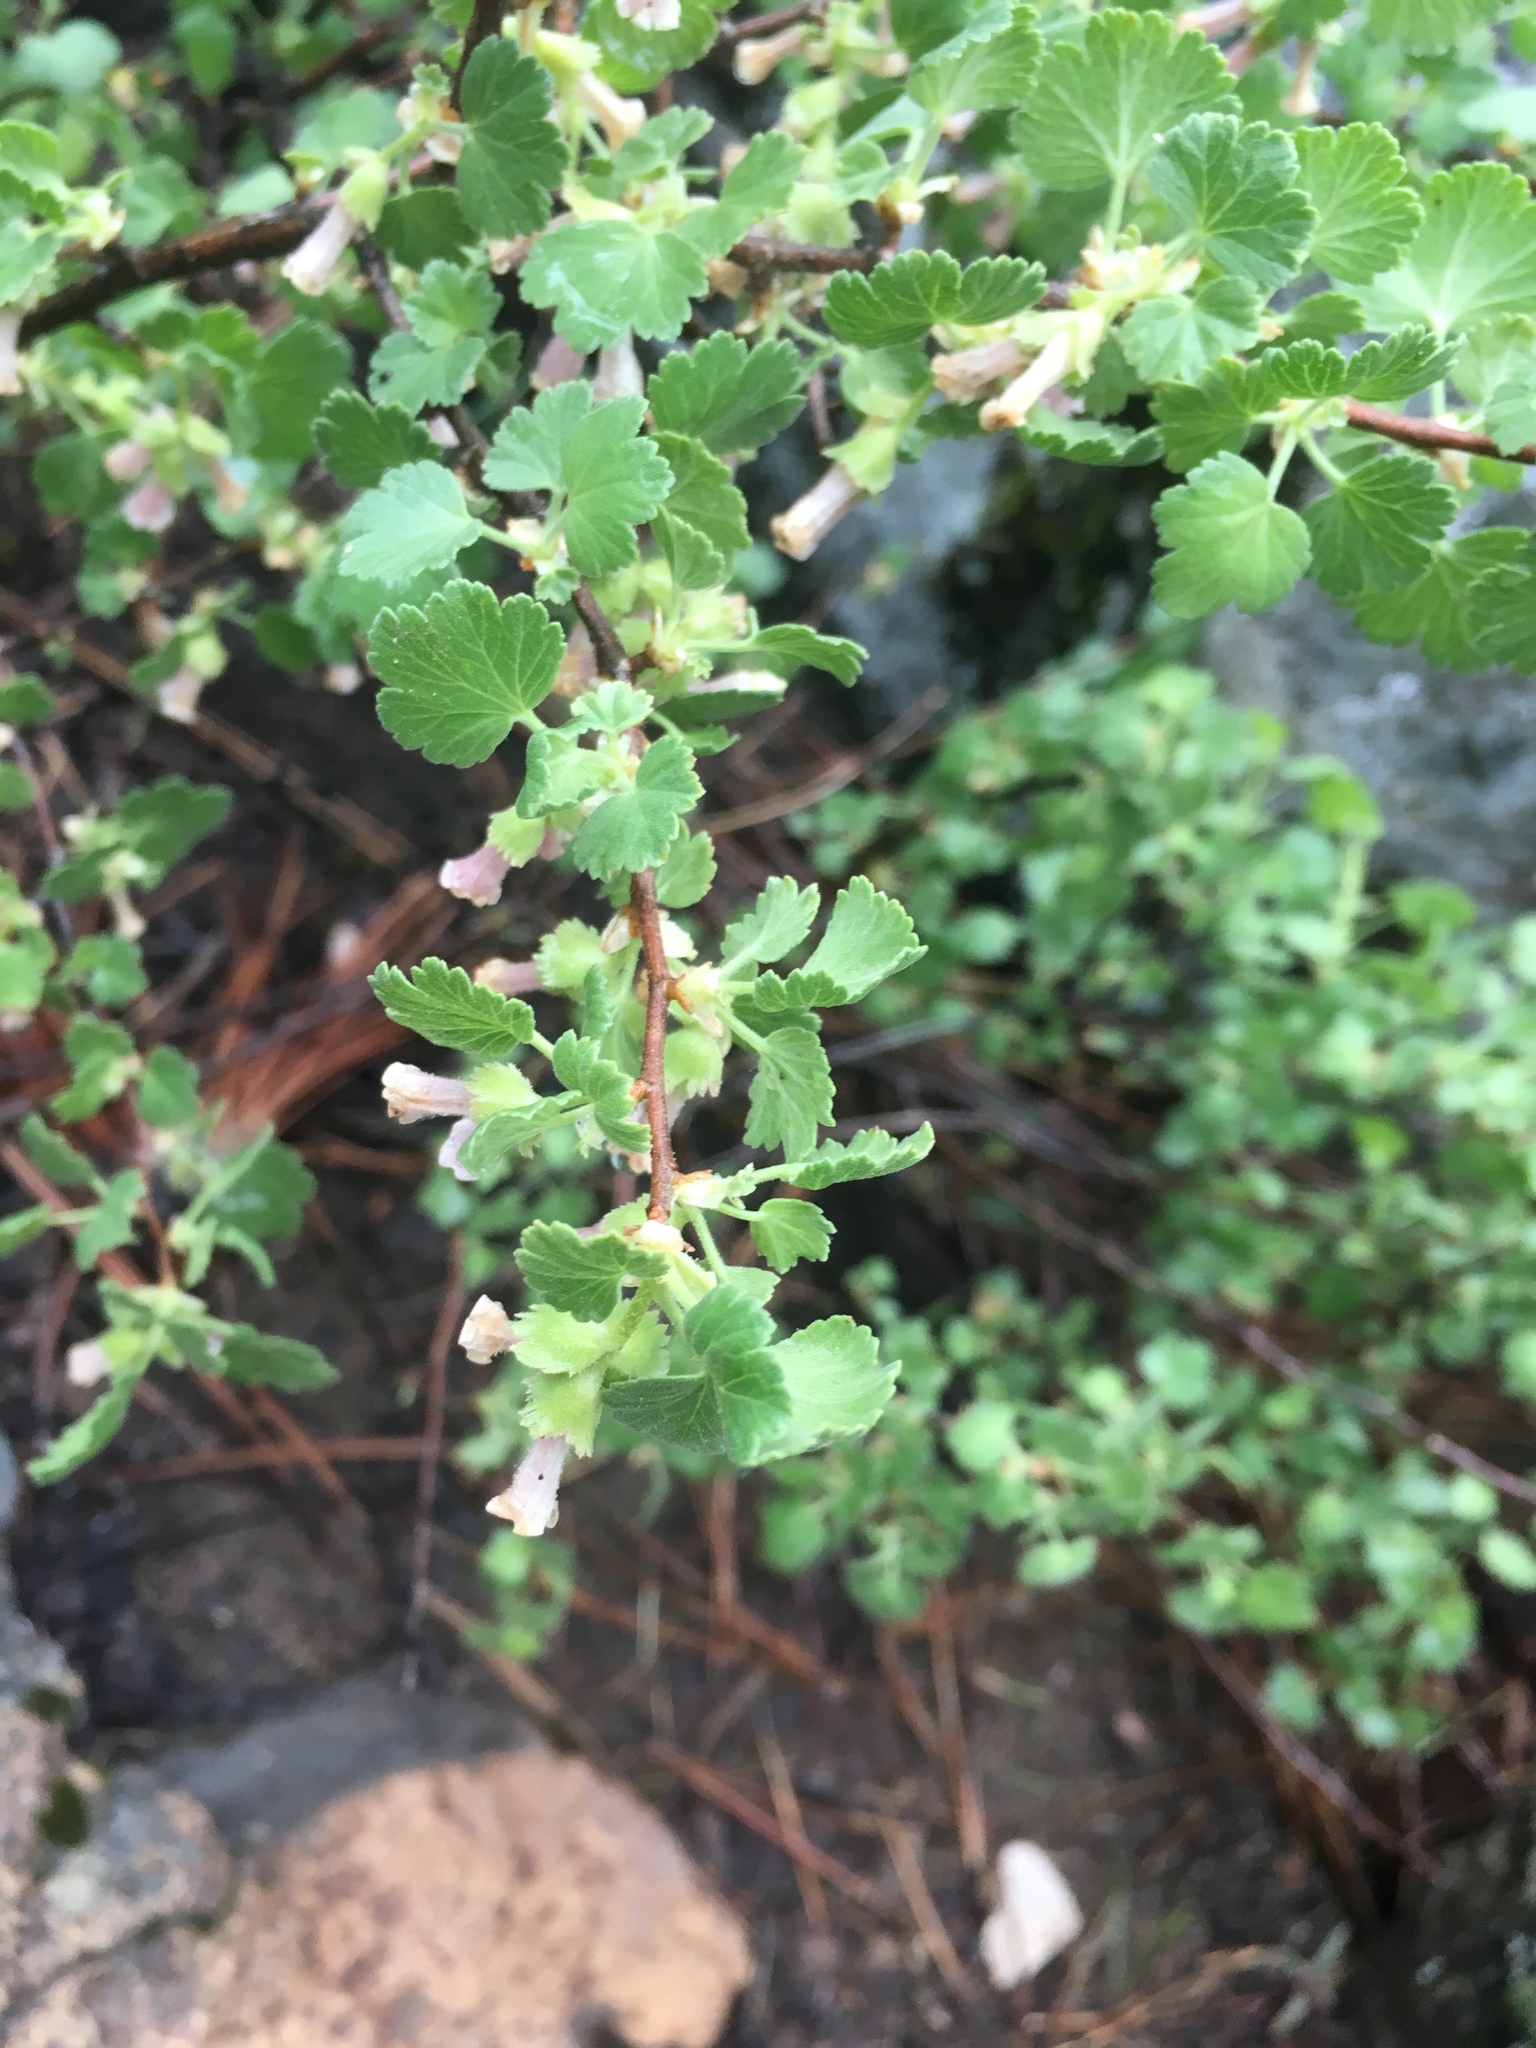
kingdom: Plantae
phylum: Tracheophyta
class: Magnoliopsida
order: Saxifragales
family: Grossulariaceae
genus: Ribes
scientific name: Ribes cereum
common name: Wax currant
